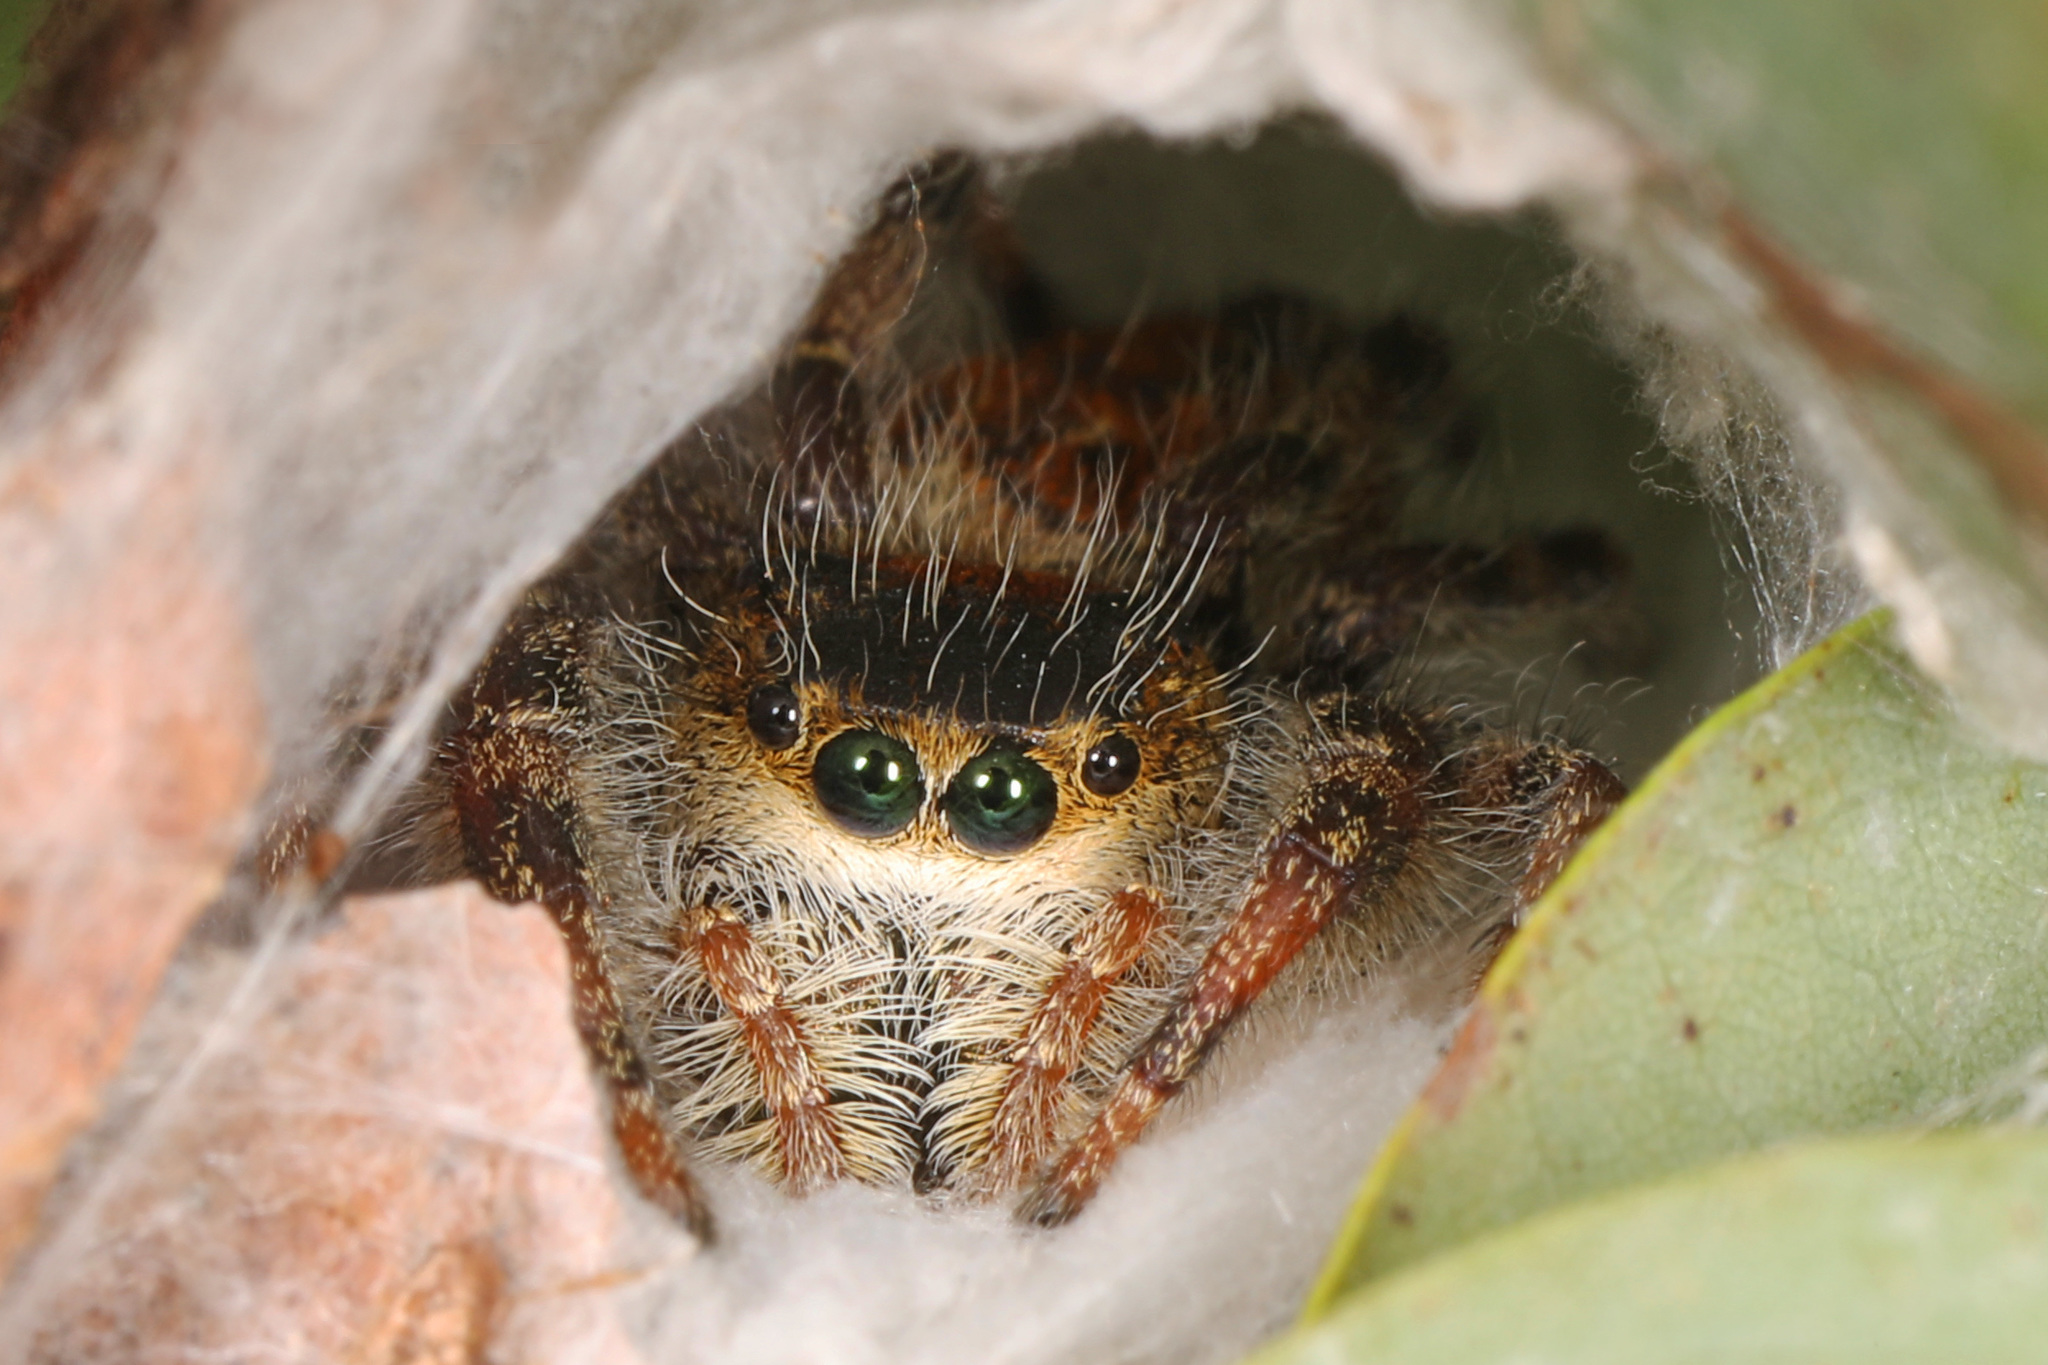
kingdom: Animalia
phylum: Arthropoda
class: Arachnida
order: Araneae
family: Salticidae
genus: Phidippus
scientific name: Phidippus princeps
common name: Grayish jumping spider
